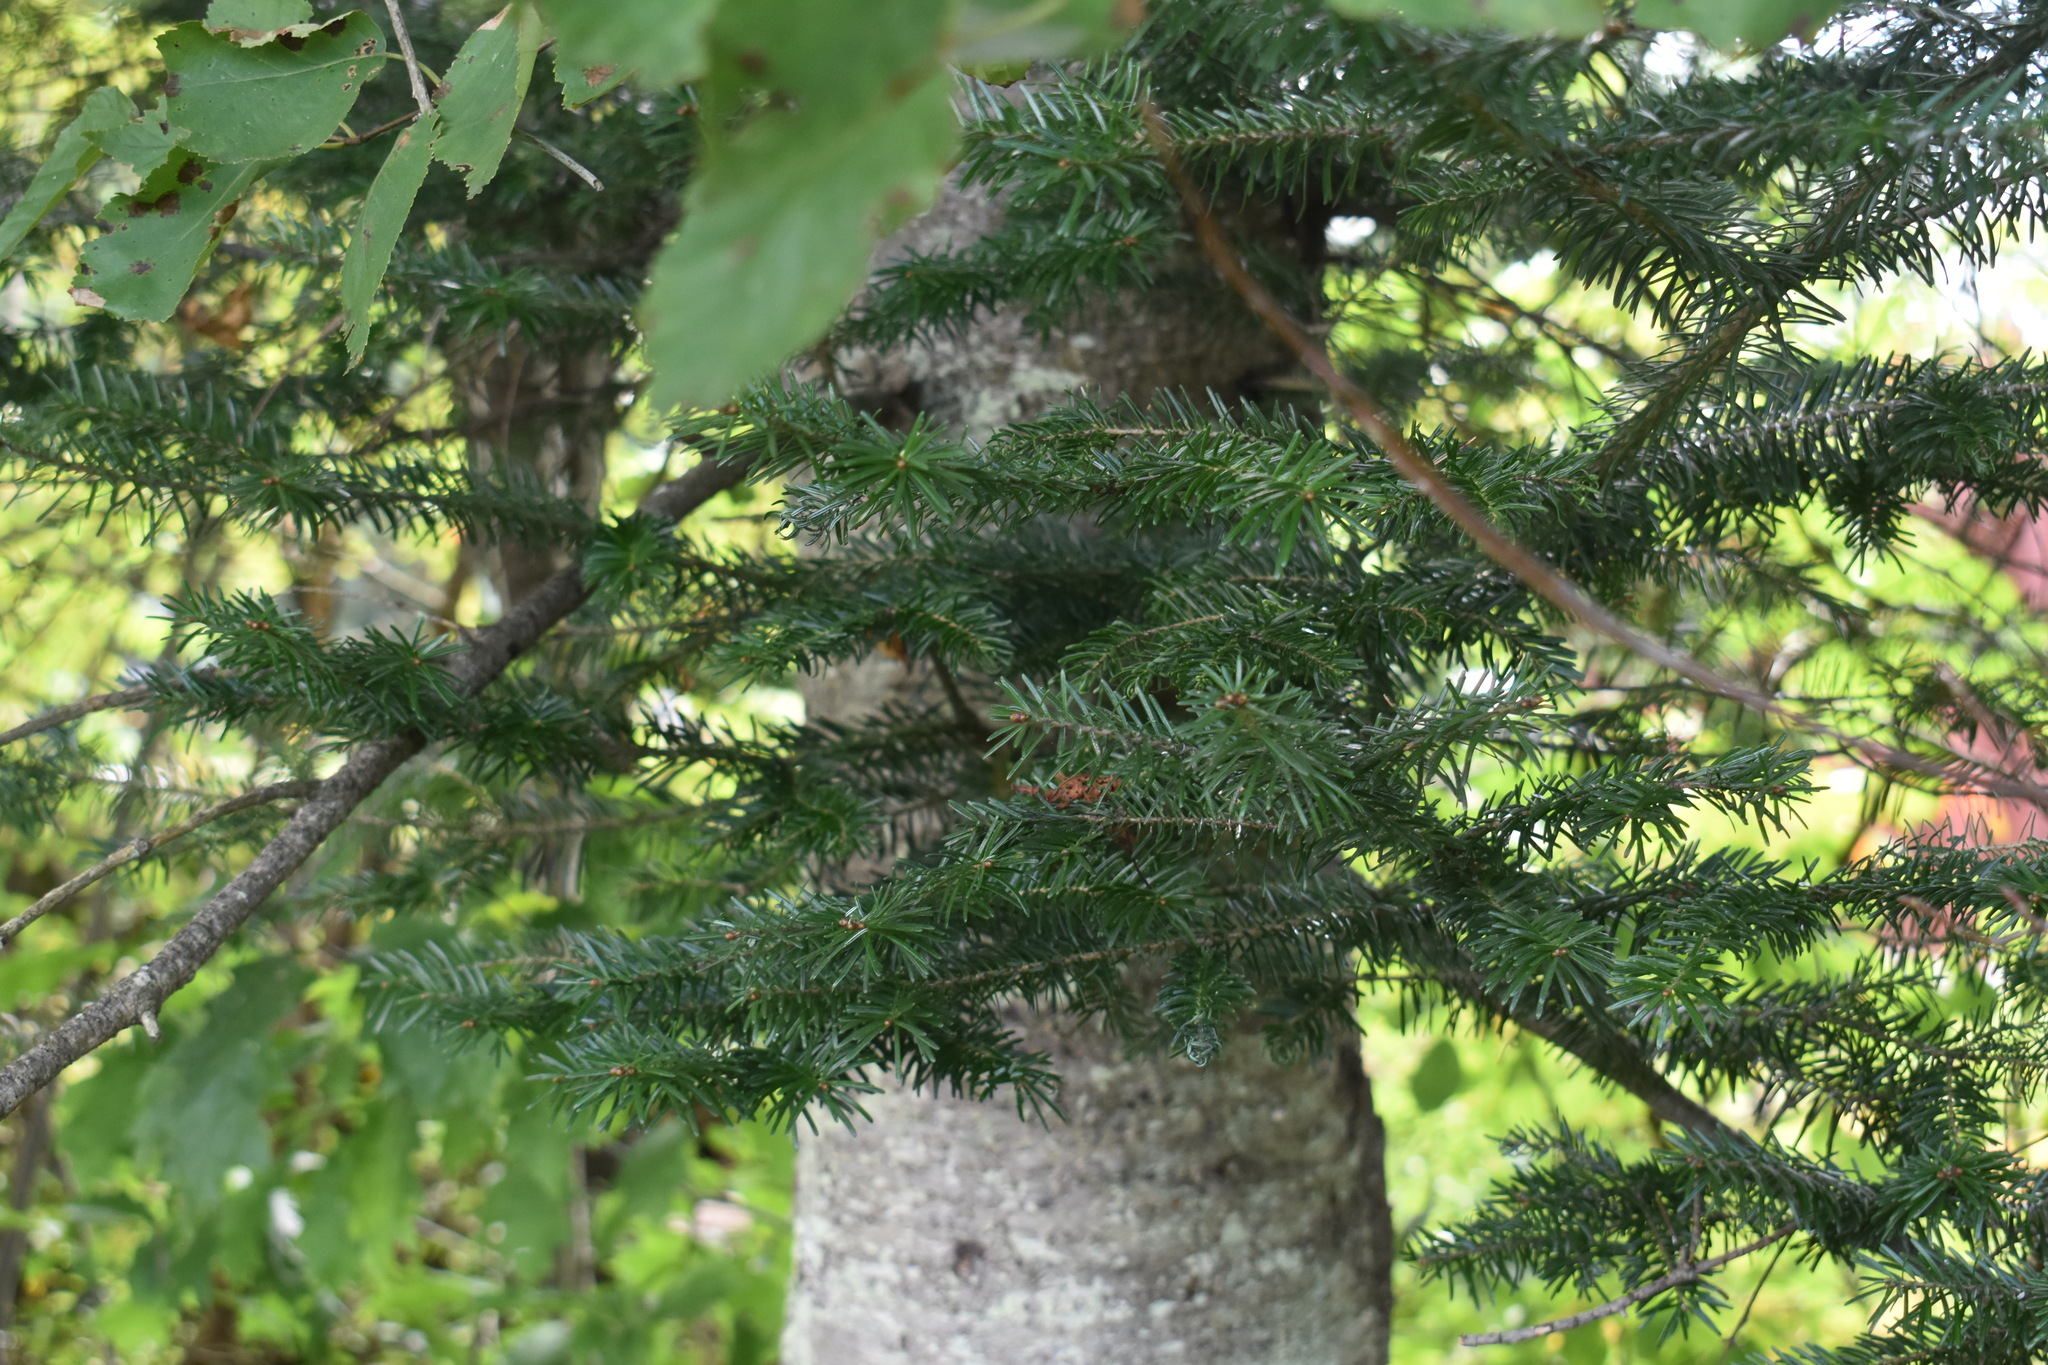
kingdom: Plantae
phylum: Tracheophyta
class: Pinopsida
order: Pinales
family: Pinaceae
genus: Abies
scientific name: Abies balsamea
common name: Balsam fir
